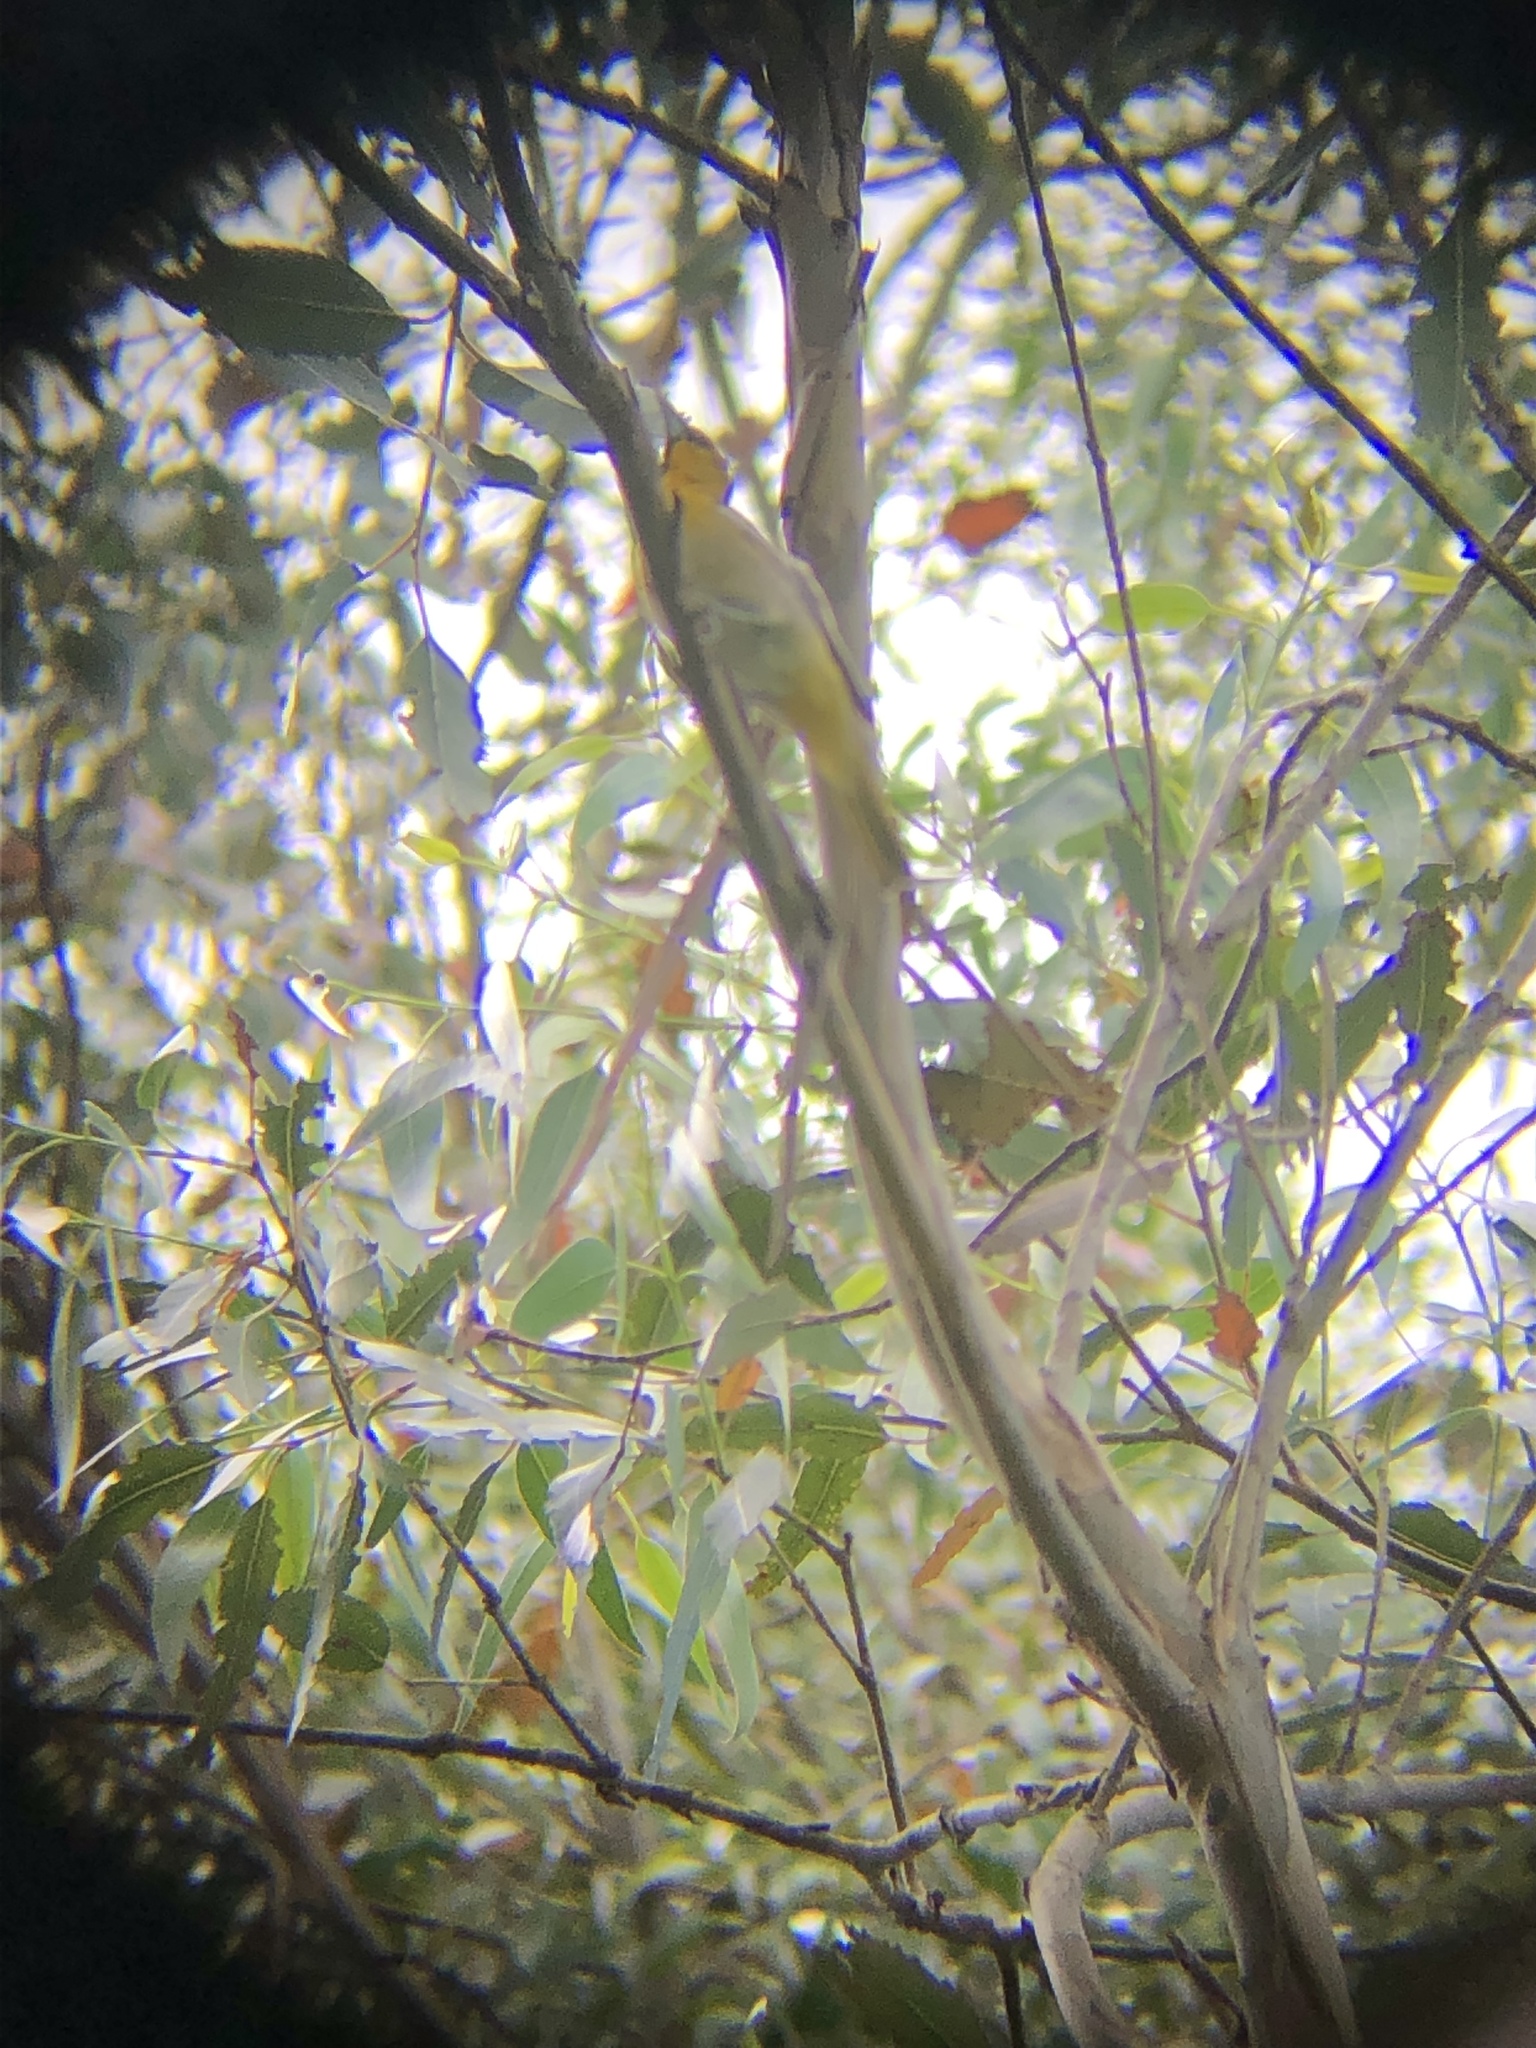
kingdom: Animalia
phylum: Chordata
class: Aves
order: Passeriformes
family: Icteridae
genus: Icterus
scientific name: Icterus bullockii
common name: Bullock's oriole
